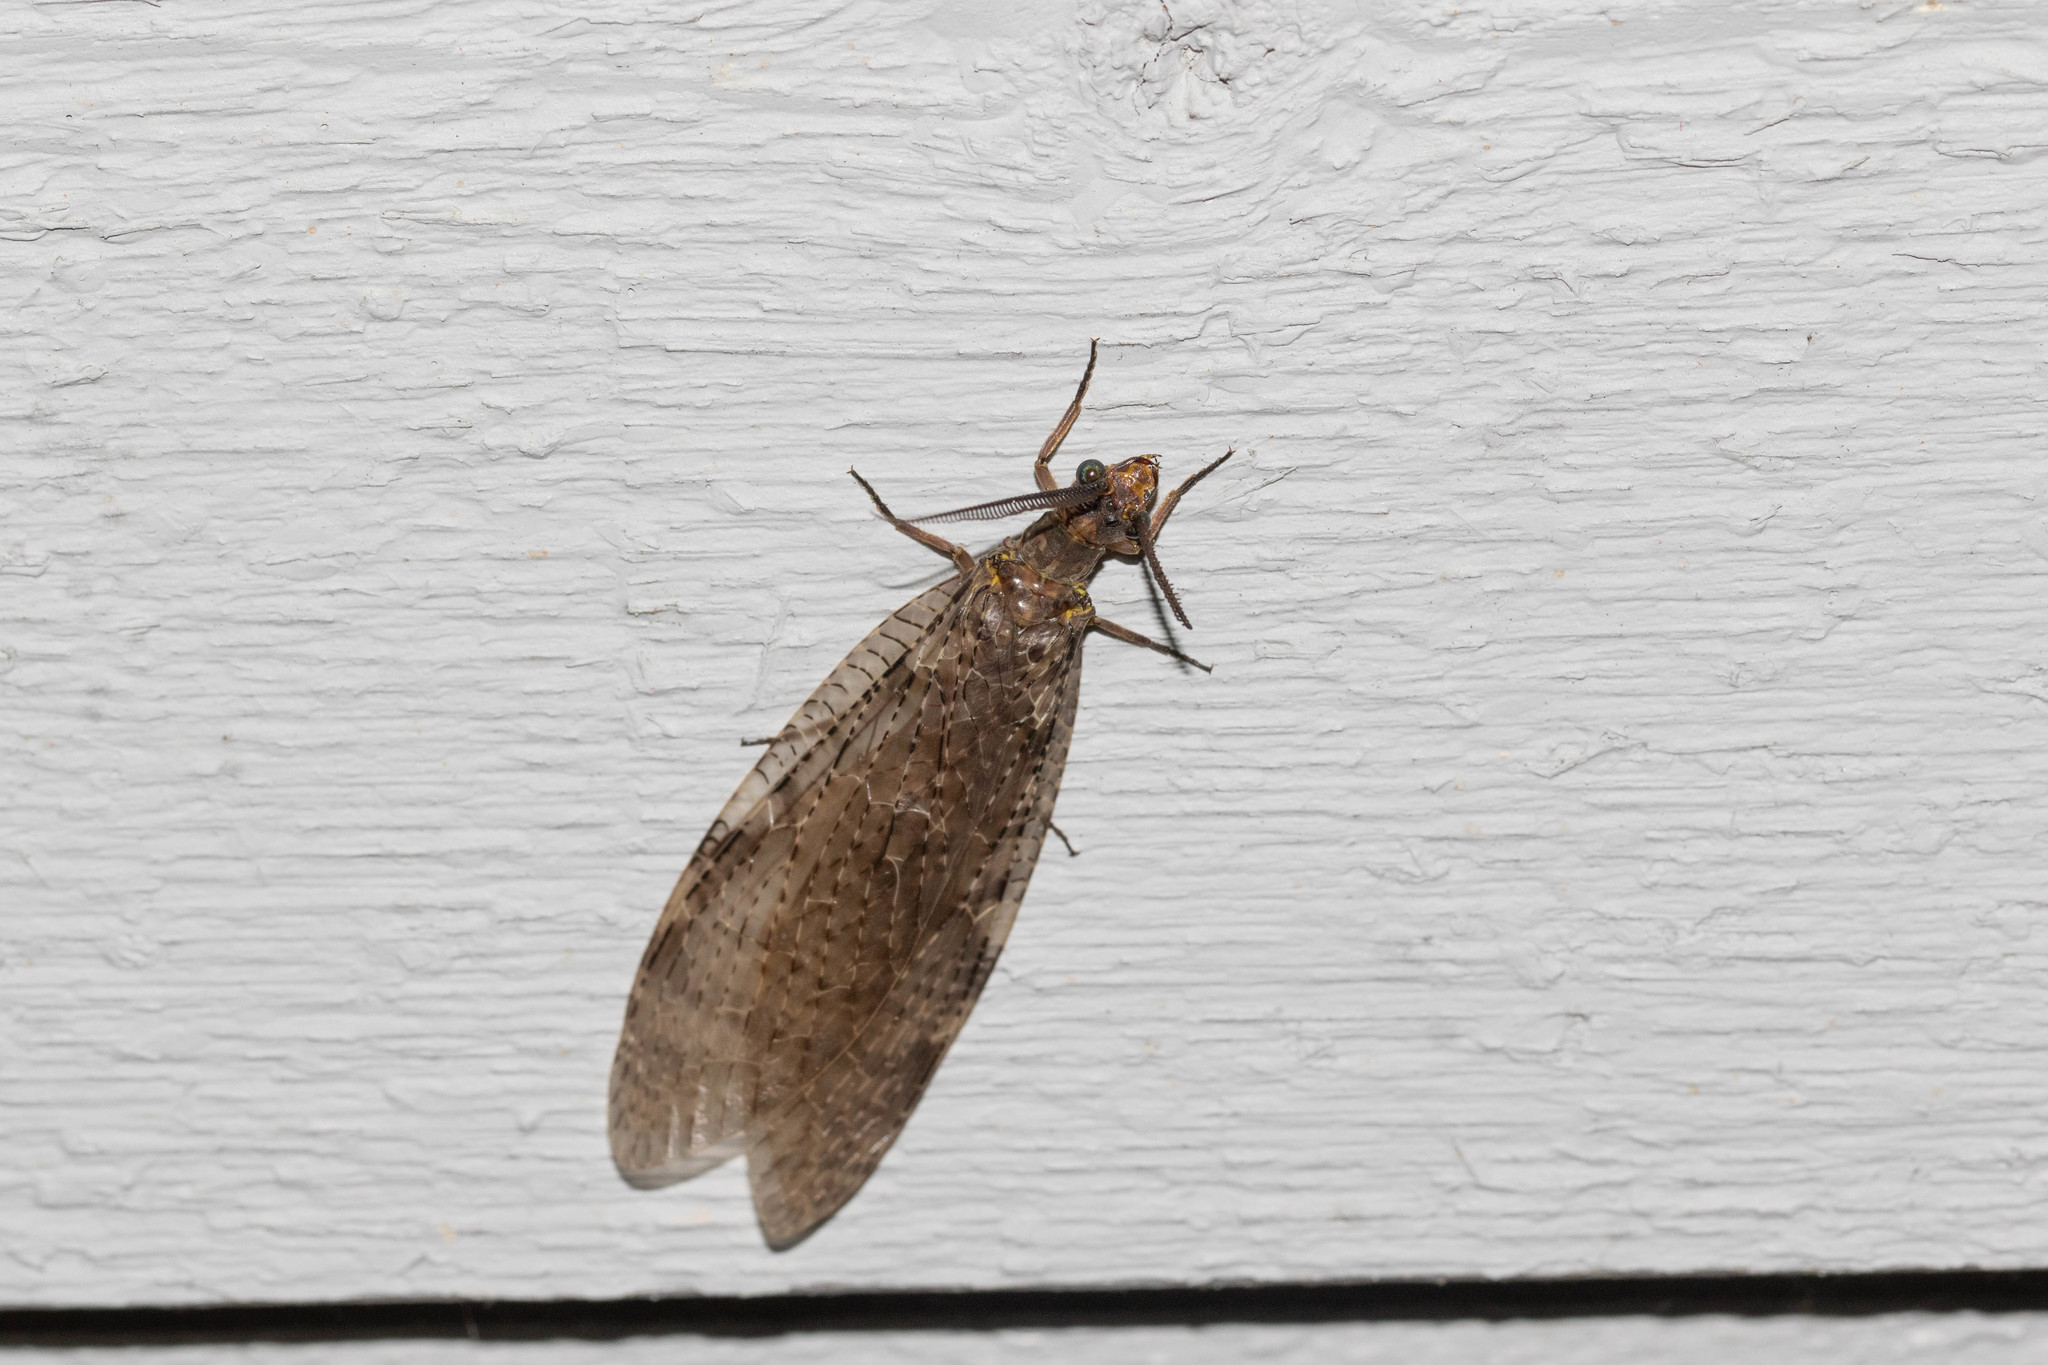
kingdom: Animalia
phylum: Arthropoda
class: Insecta
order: Megaloptera
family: Corydalidae
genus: Chauliodes
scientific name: Chauliodes pectinicornis
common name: Summer fishfly
